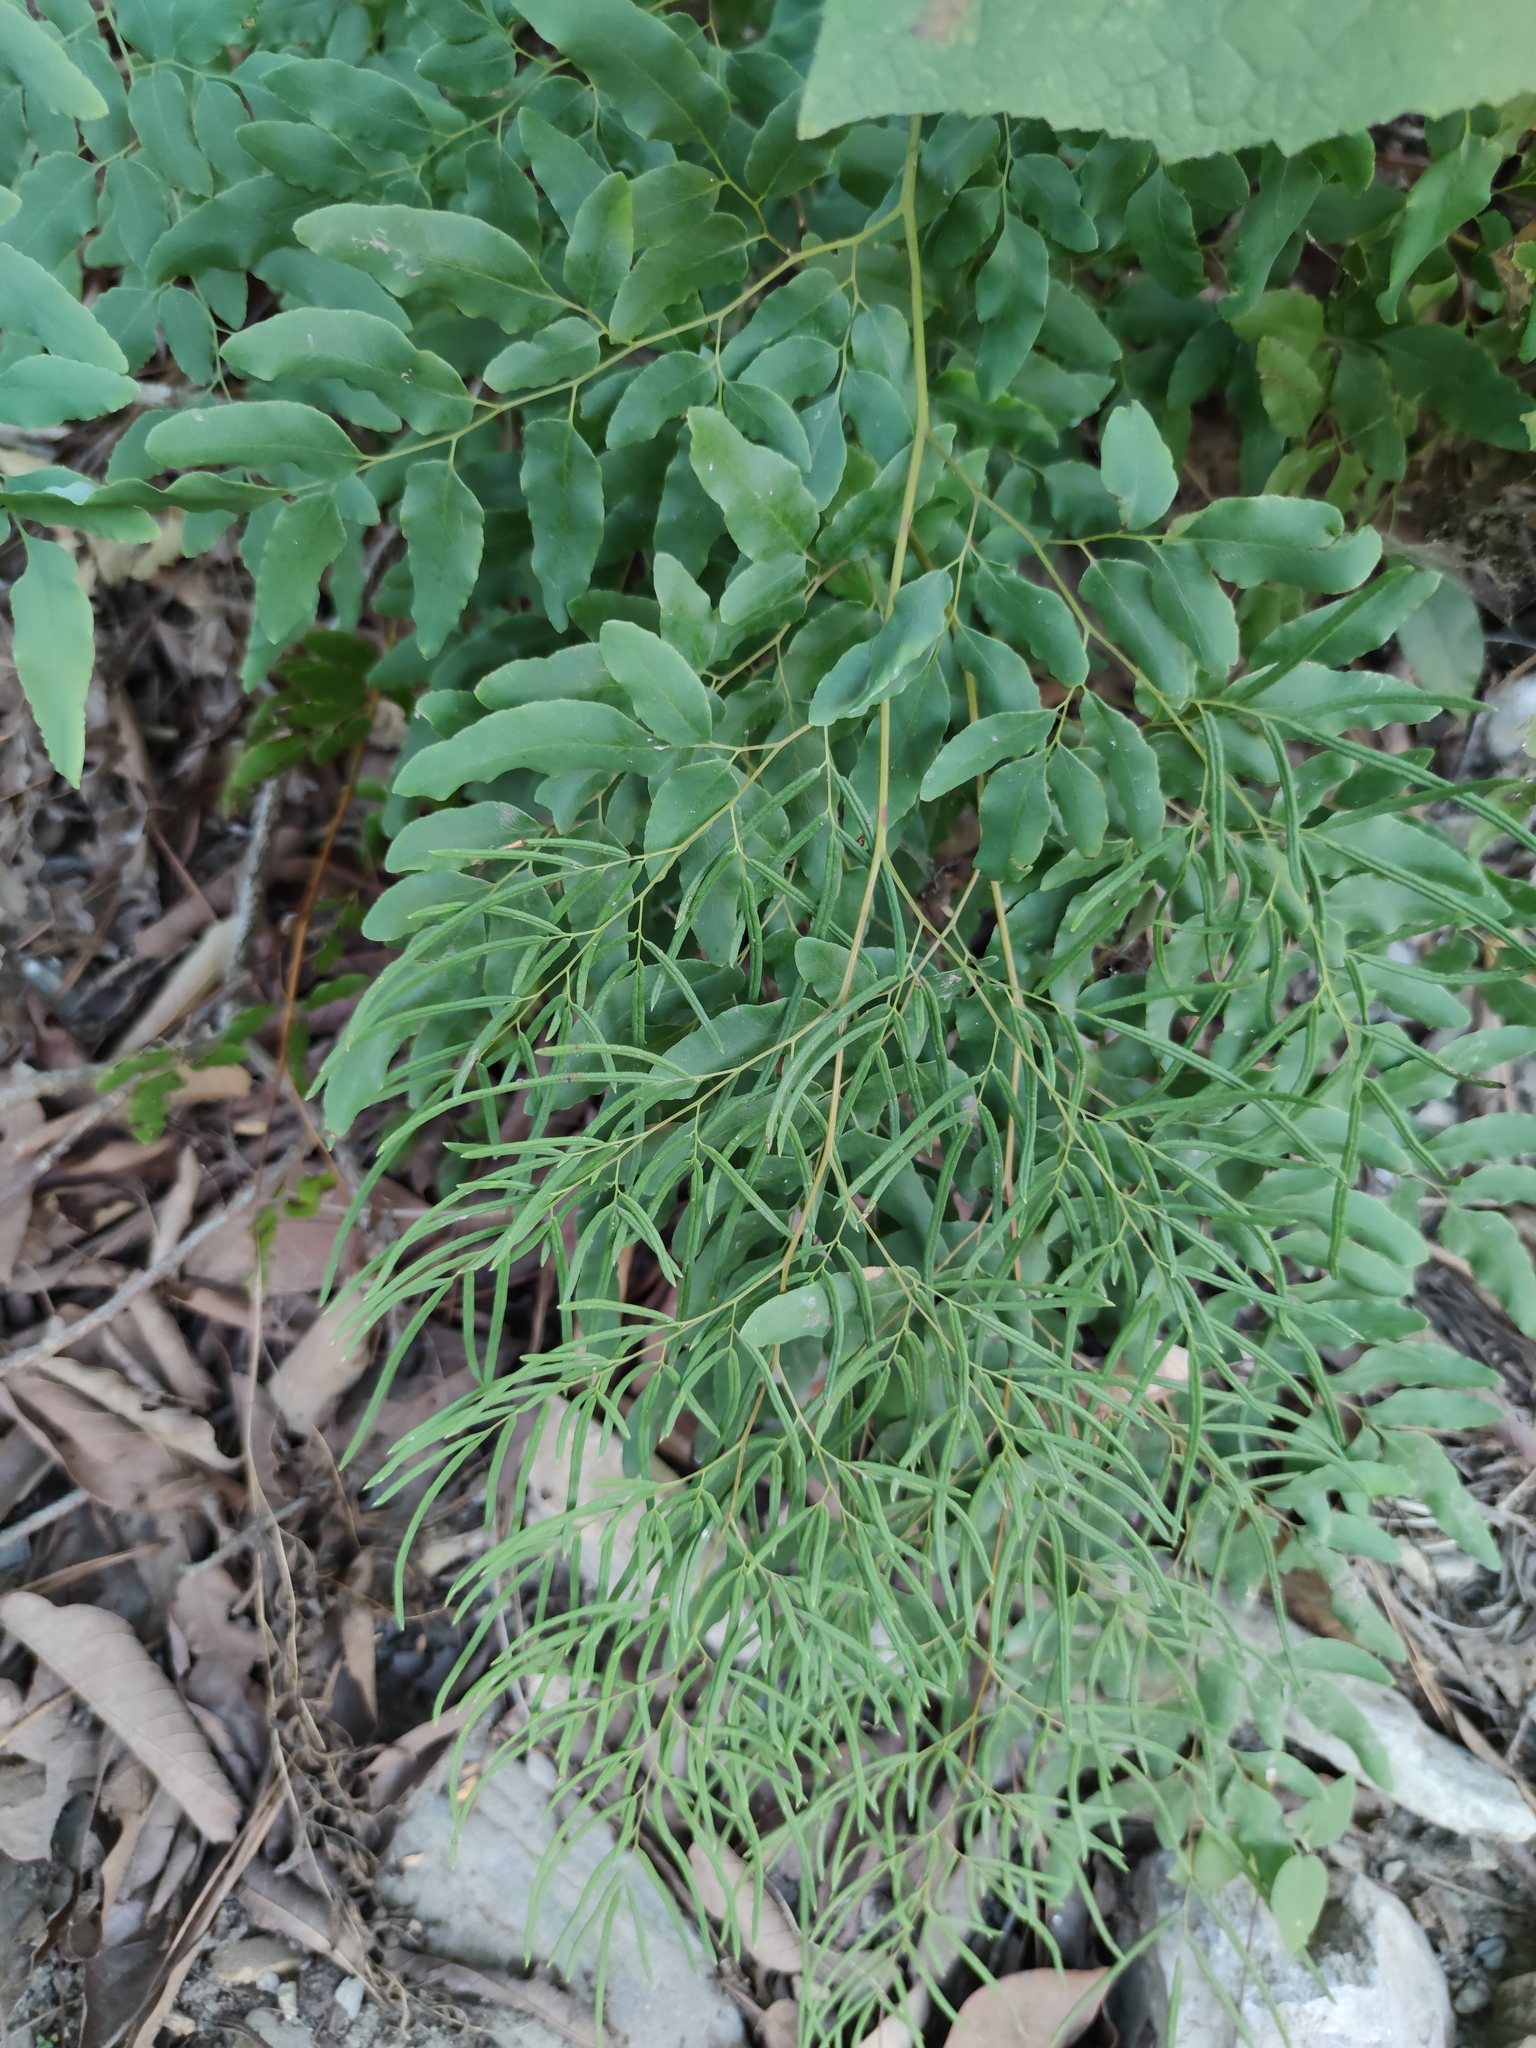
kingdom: Plantae
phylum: Tracheophyta
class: Polypodiopsida
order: Polypodiales
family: Pteridaceae
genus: Llavea
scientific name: Llavea cordifolia
